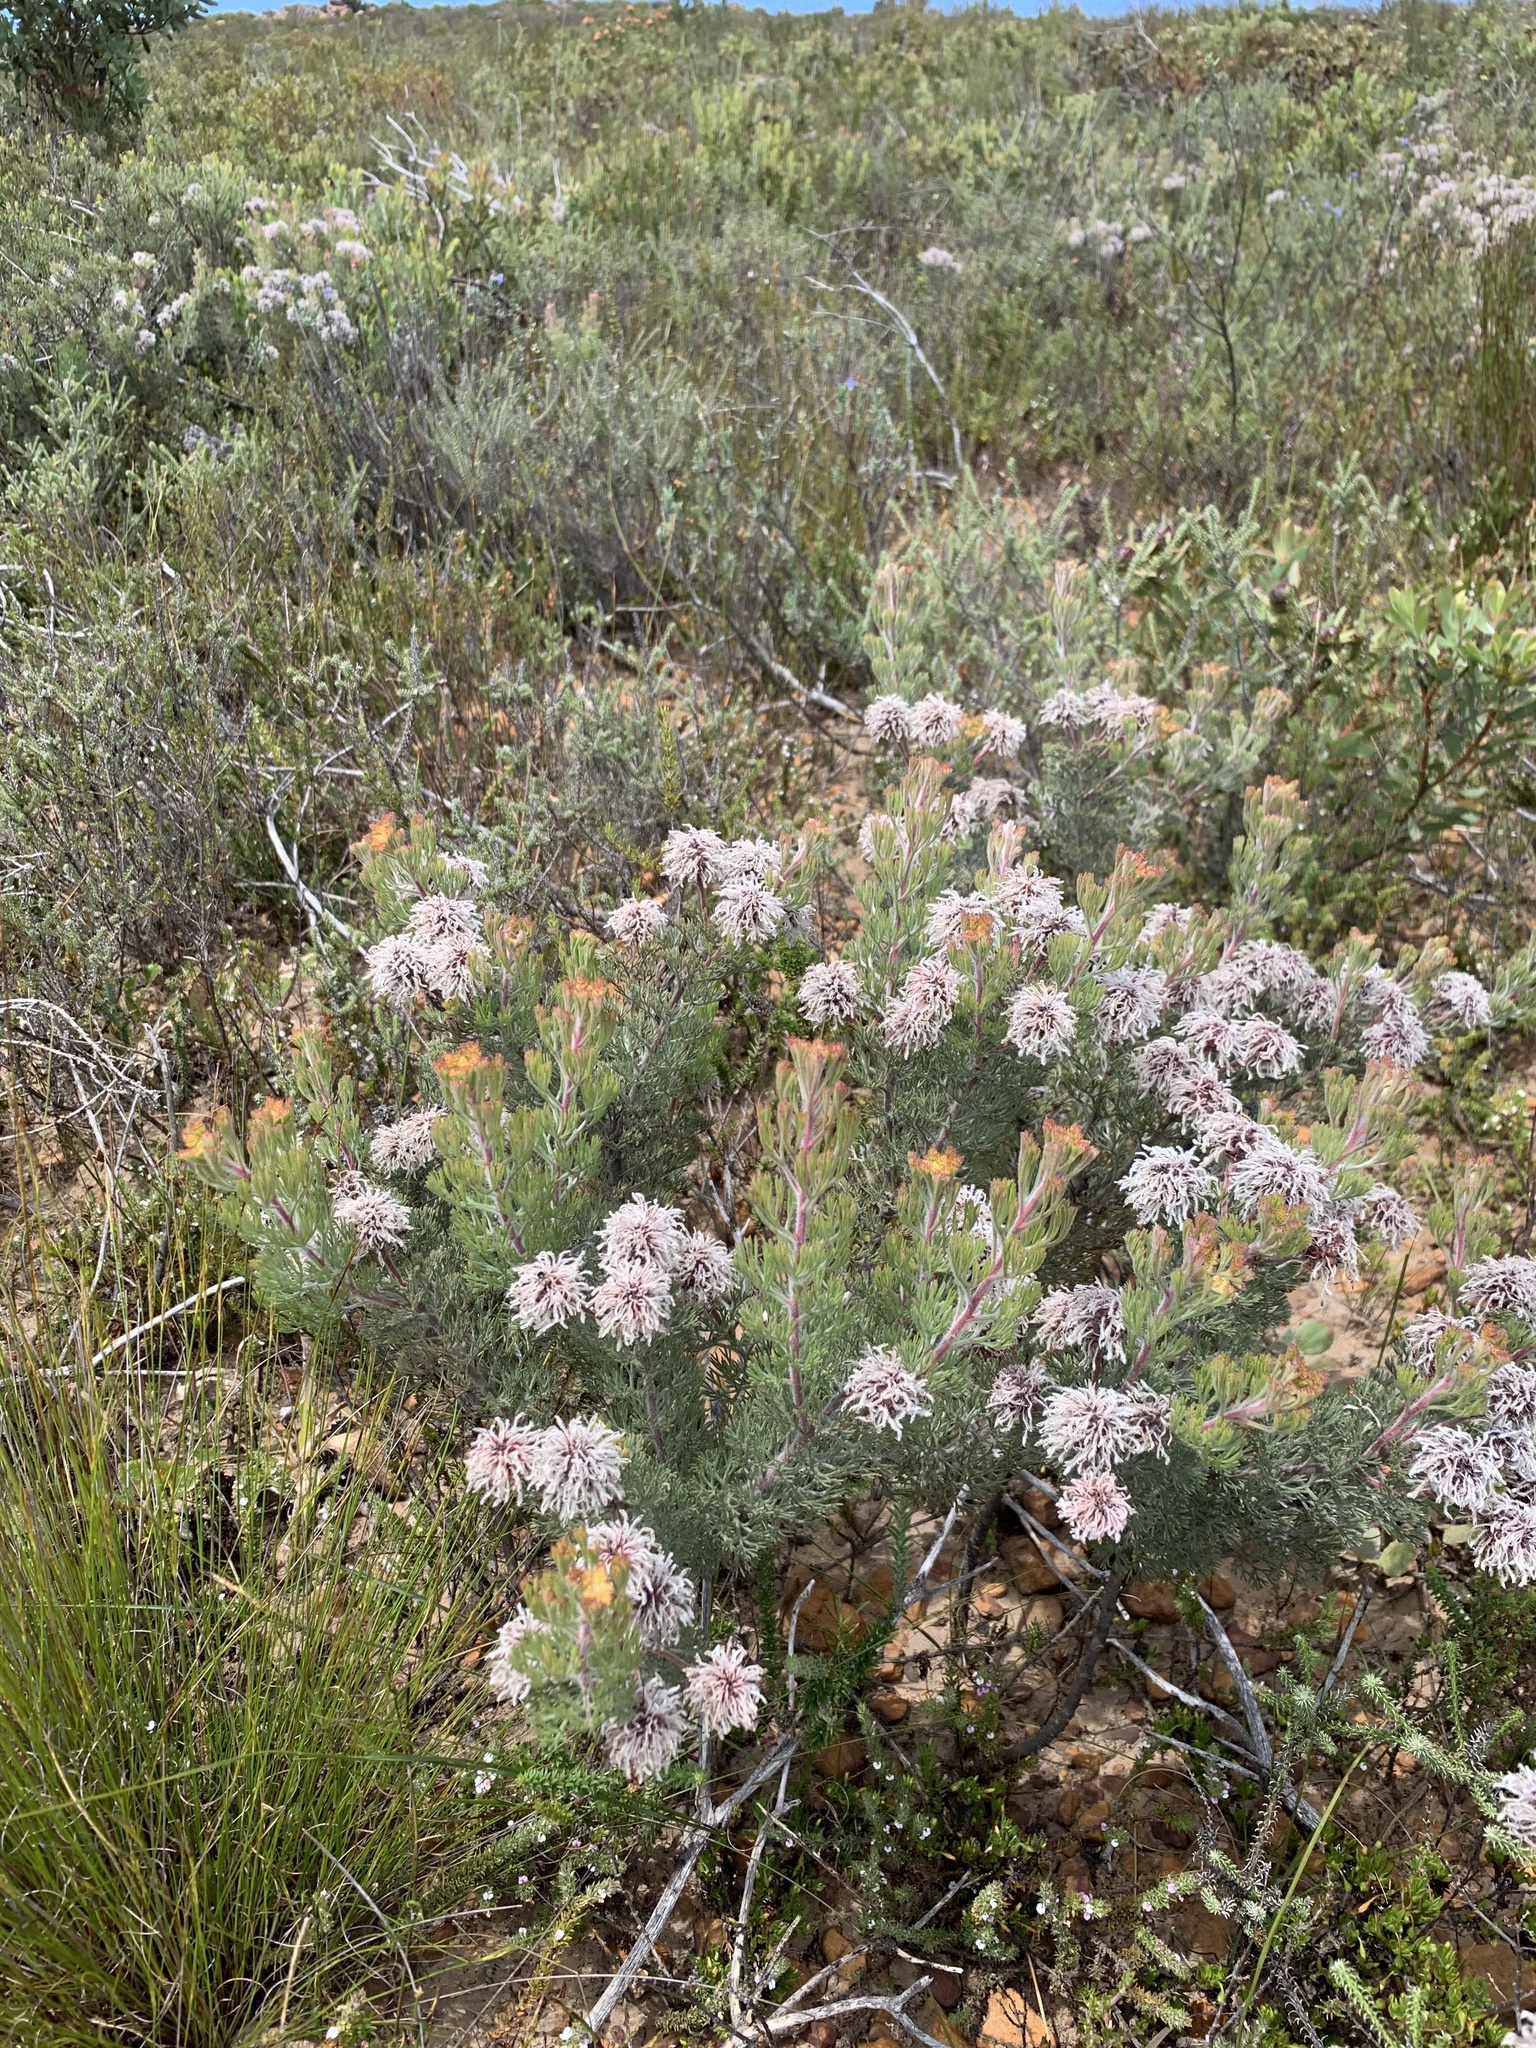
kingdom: Plantae
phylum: Tracheophyta
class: Magnoliopsida
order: Proteales
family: Proteaceae
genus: Serruria
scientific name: Serruria aitonii
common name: Marshmallow spiderhead
